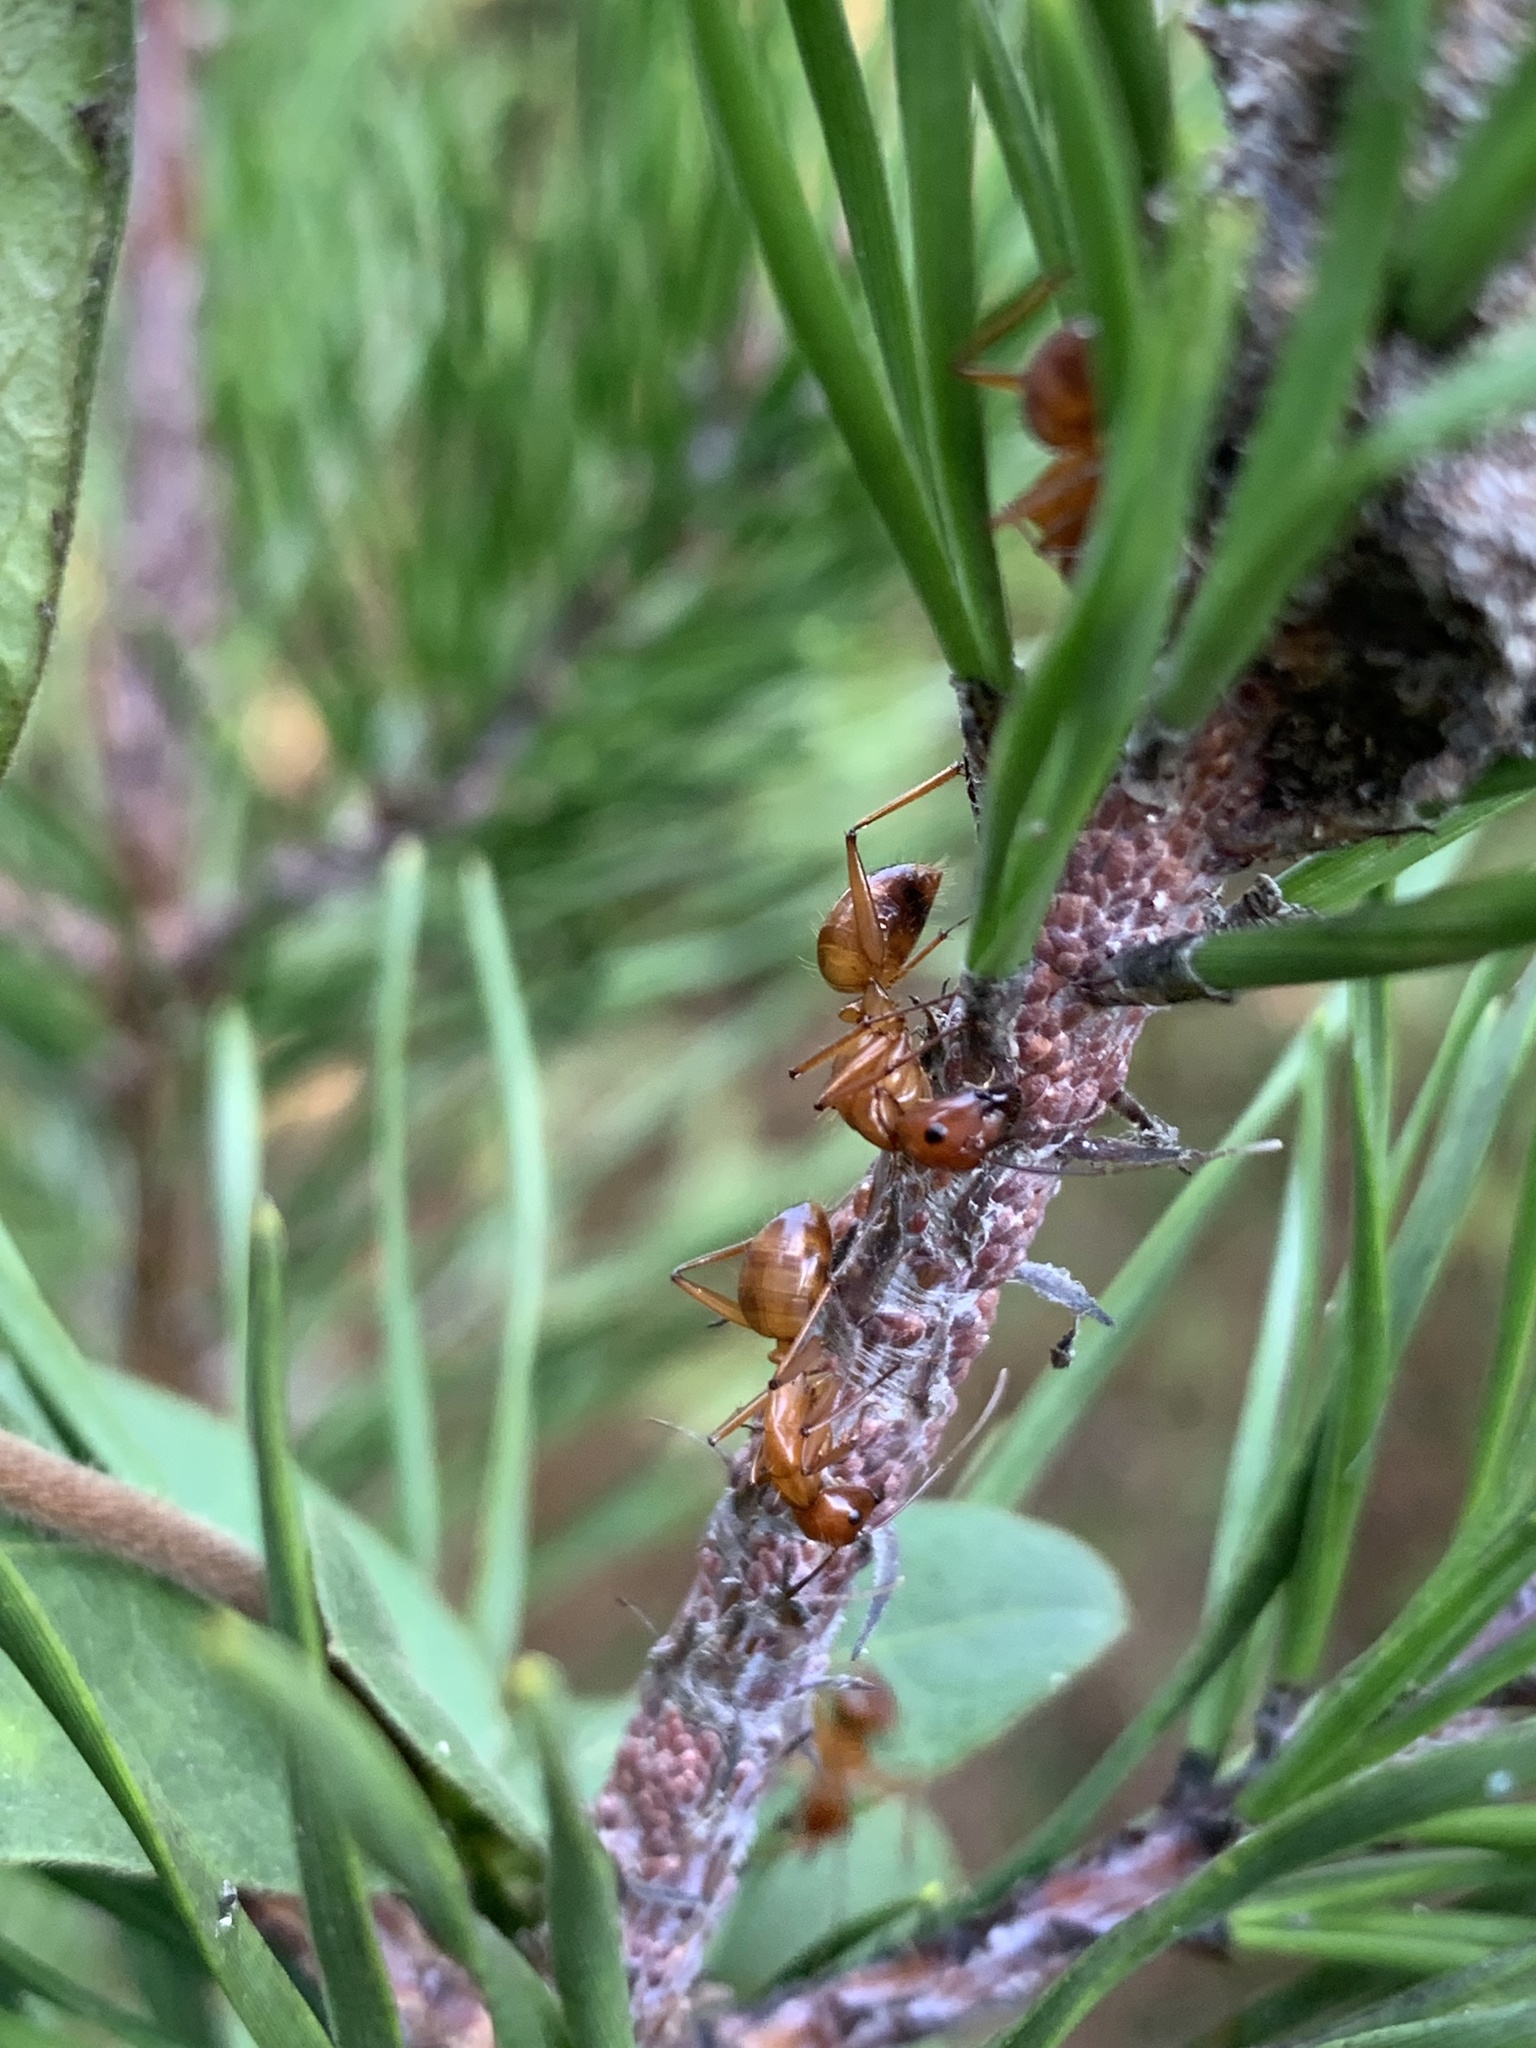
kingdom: Animalia
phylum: Arthropoda
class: Insecta
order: Hymenoptera
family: Formicidae
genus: Camponotus
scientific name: Camponotus castaneus
